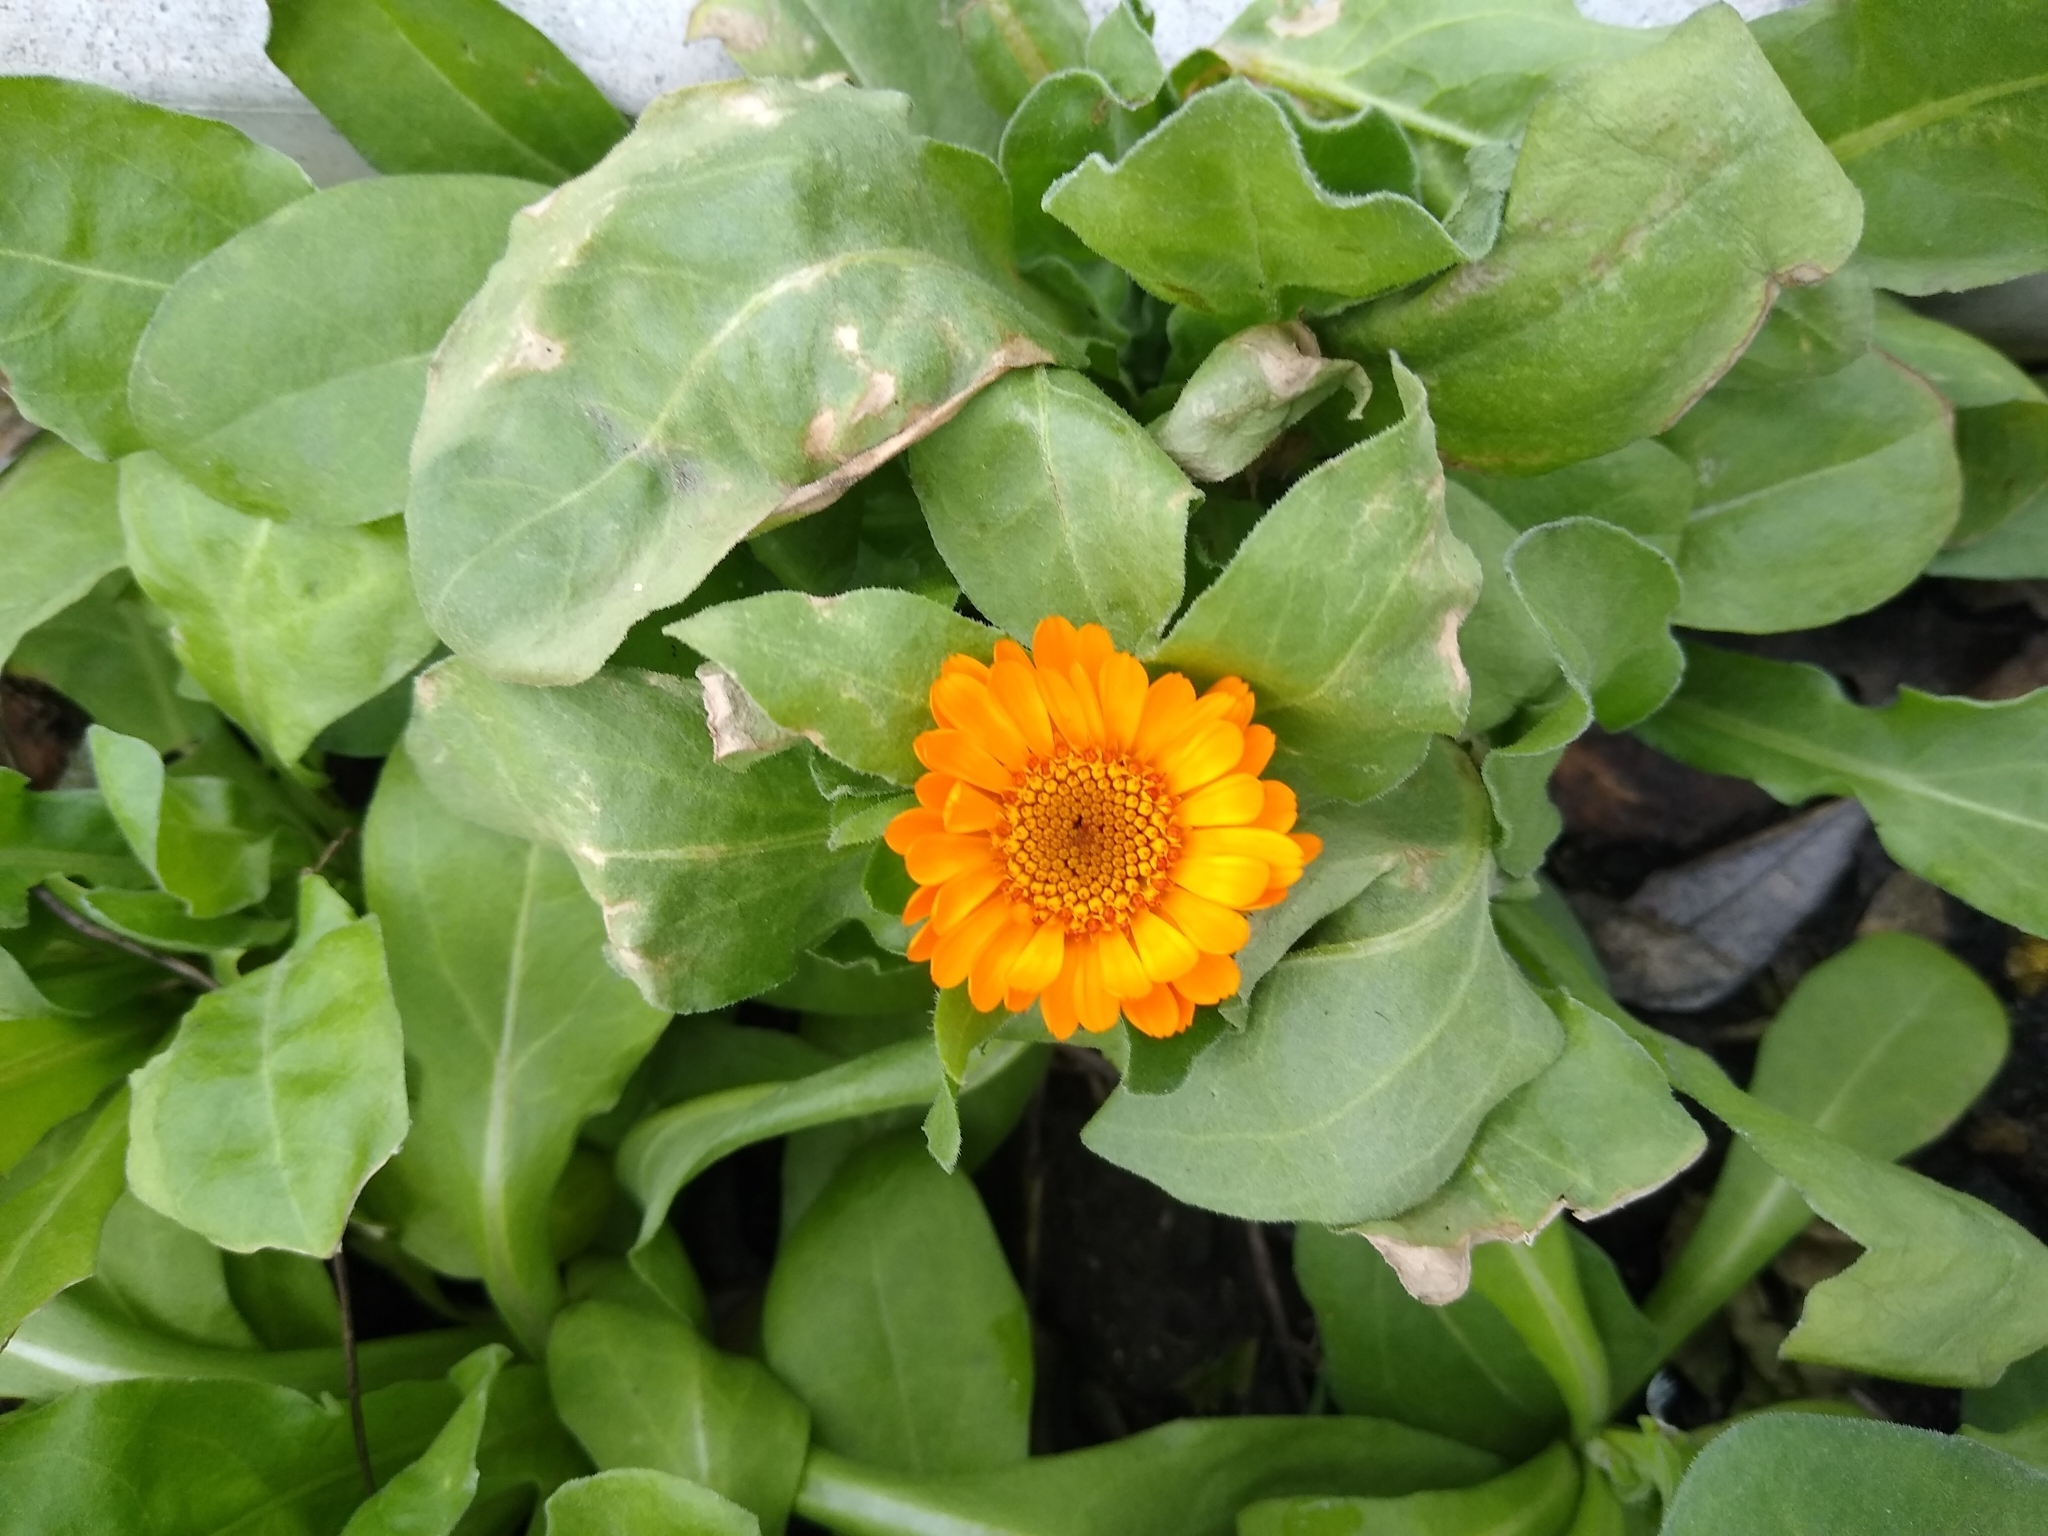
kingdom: Plantae
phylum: Tracheophyta
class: Magnoliopsida
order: Asterales
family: Asteraceae
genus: Calendula
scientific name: Calendula officinalis
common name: Pot marigold
